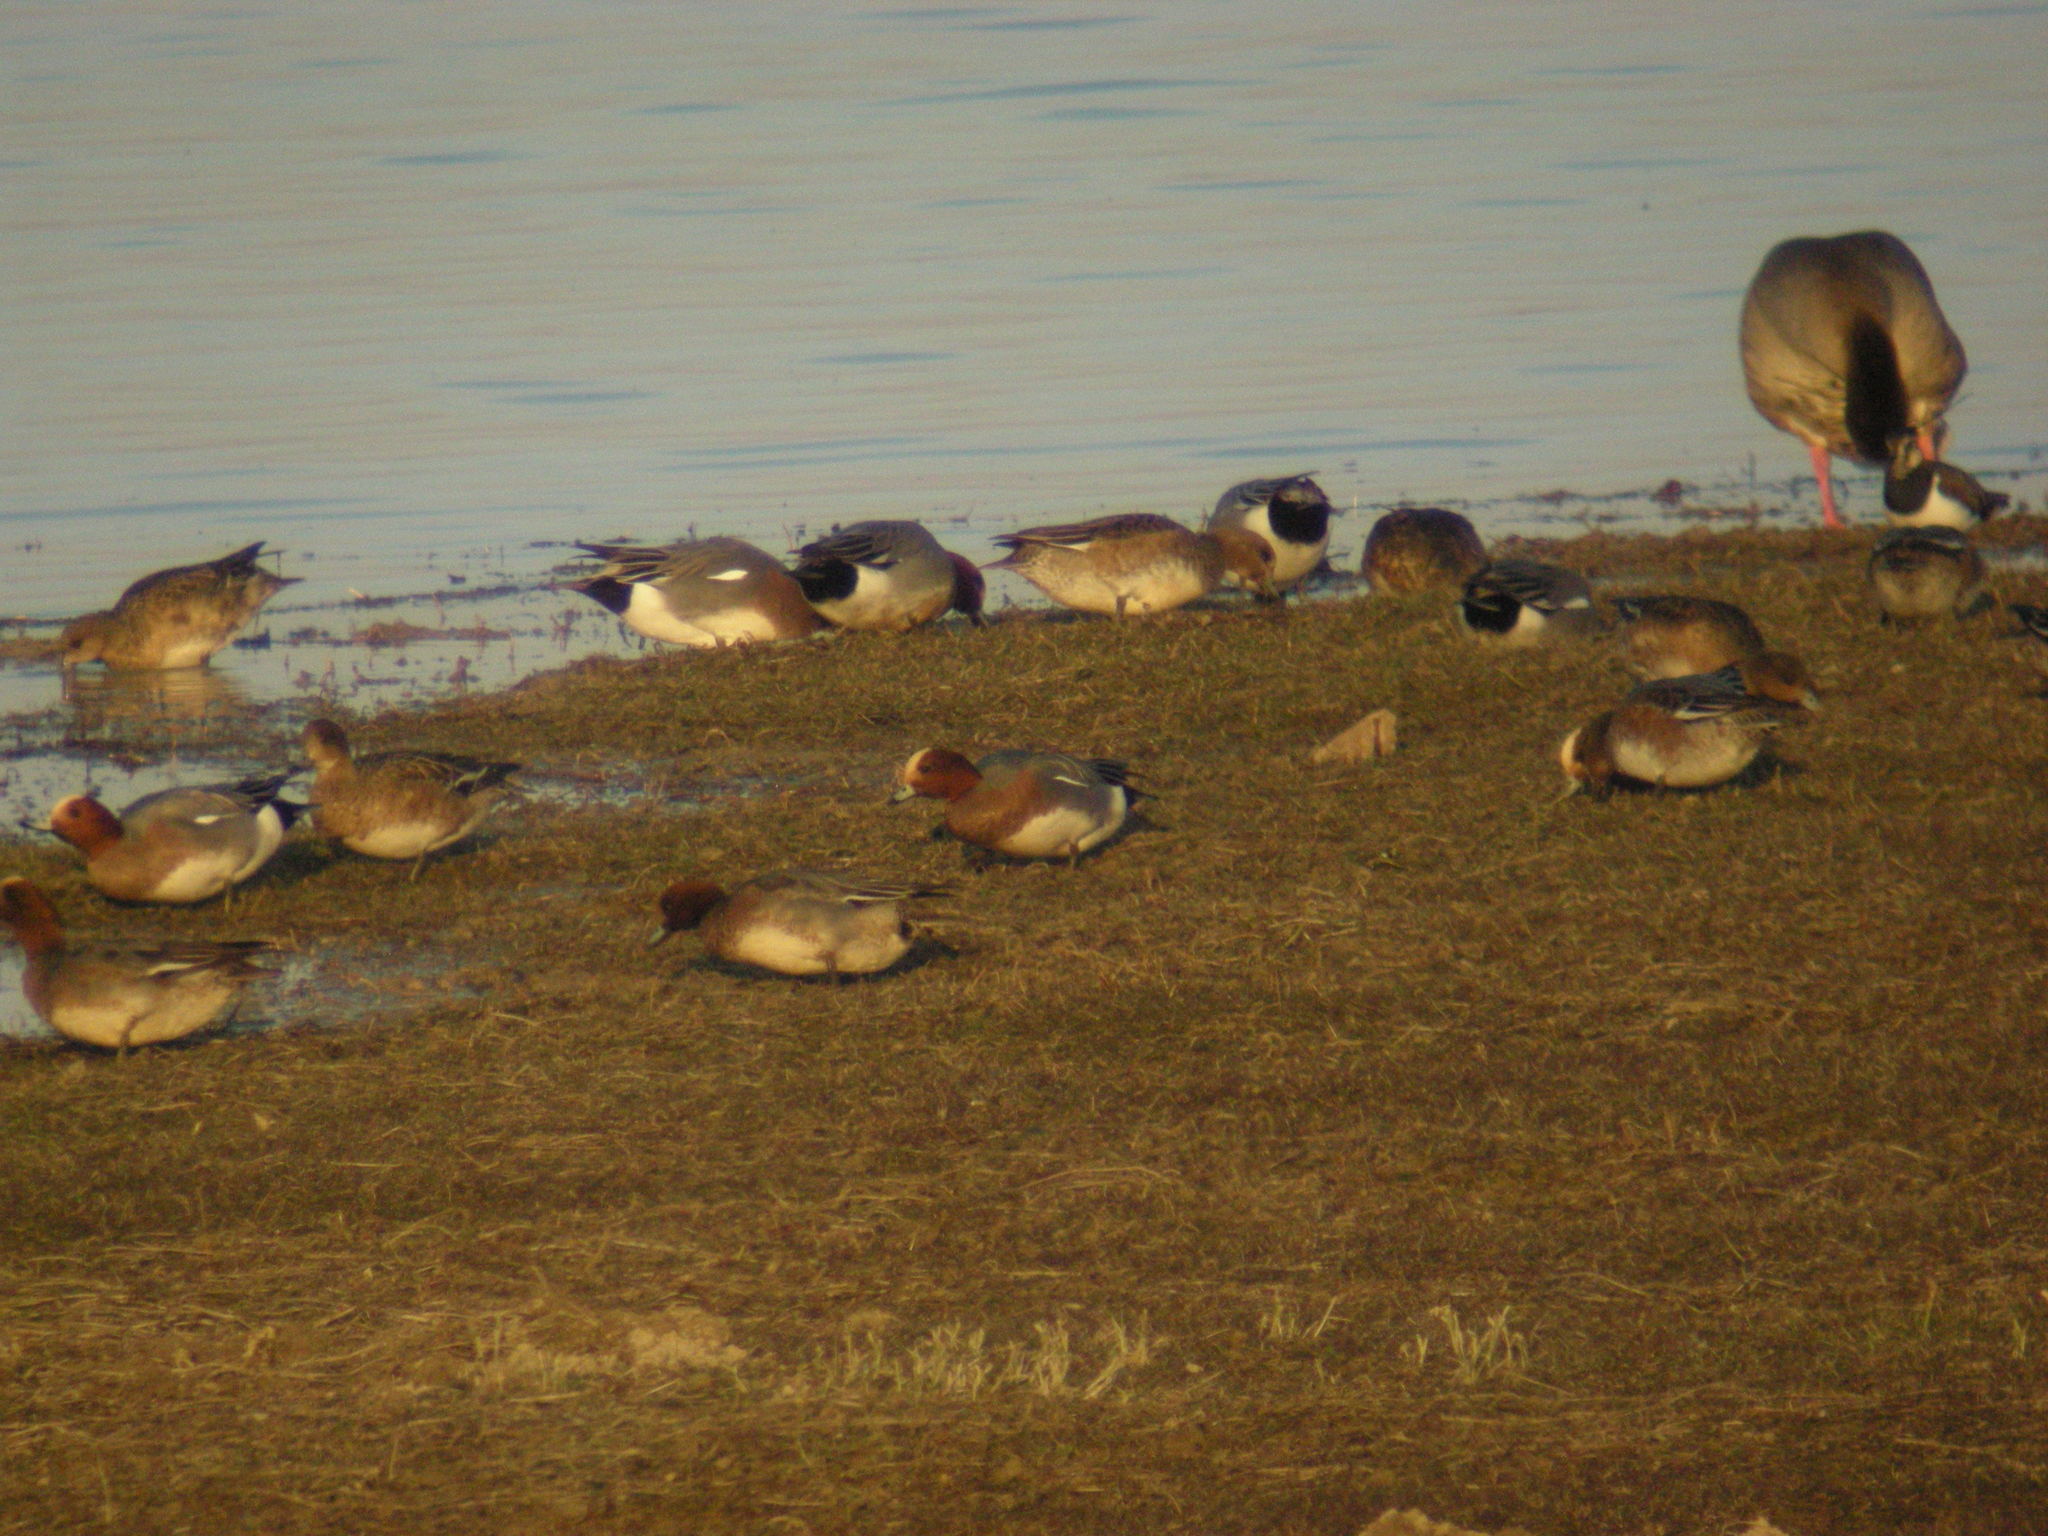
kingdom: Animalia
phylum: Chordata
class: Aves
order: Anseriformes
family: Anatidae
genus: Mareca
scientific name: Mareca penelope
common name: Eurasian wigeon
